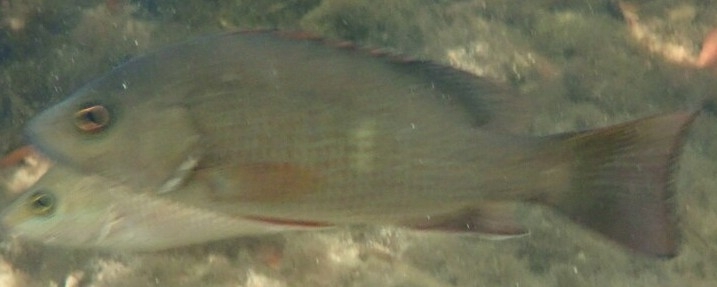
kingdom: Animalia
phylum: Chordata
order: Perciformes
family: Lutjanidae
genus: Lutjanus
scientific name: Lutjanus griseus
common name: Gray snapper
